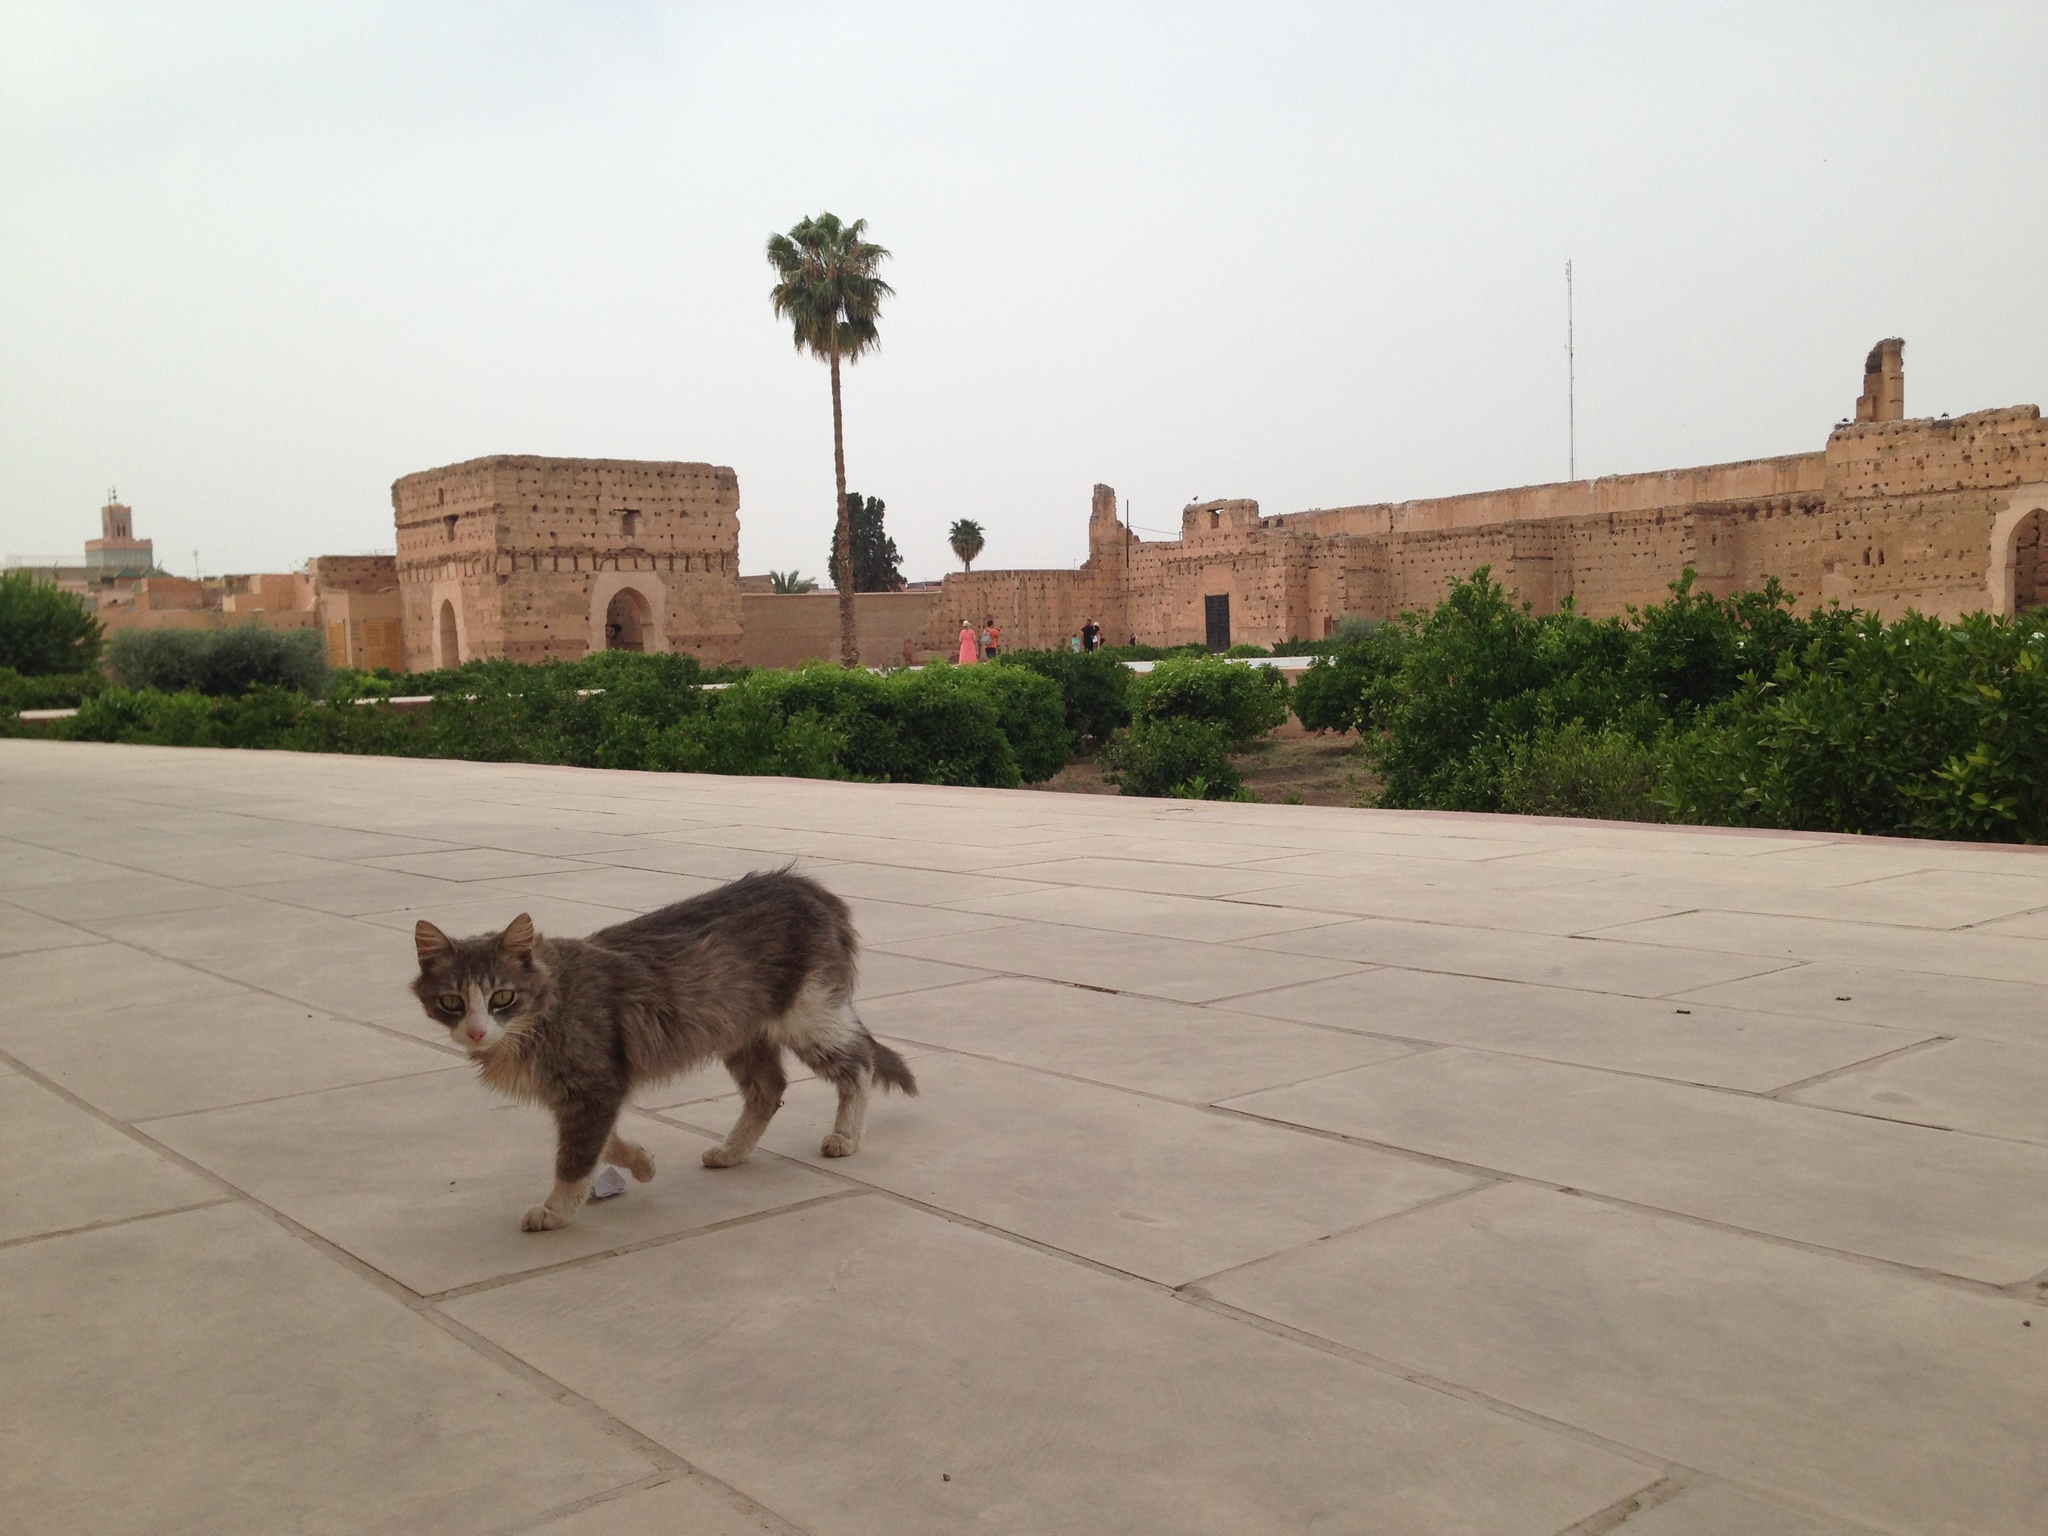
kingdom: Animalia
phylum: Chordata
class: Mammalia
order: Carnivora
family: Felidae
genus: Felis
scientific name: Felis catus
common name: Domestic cat
